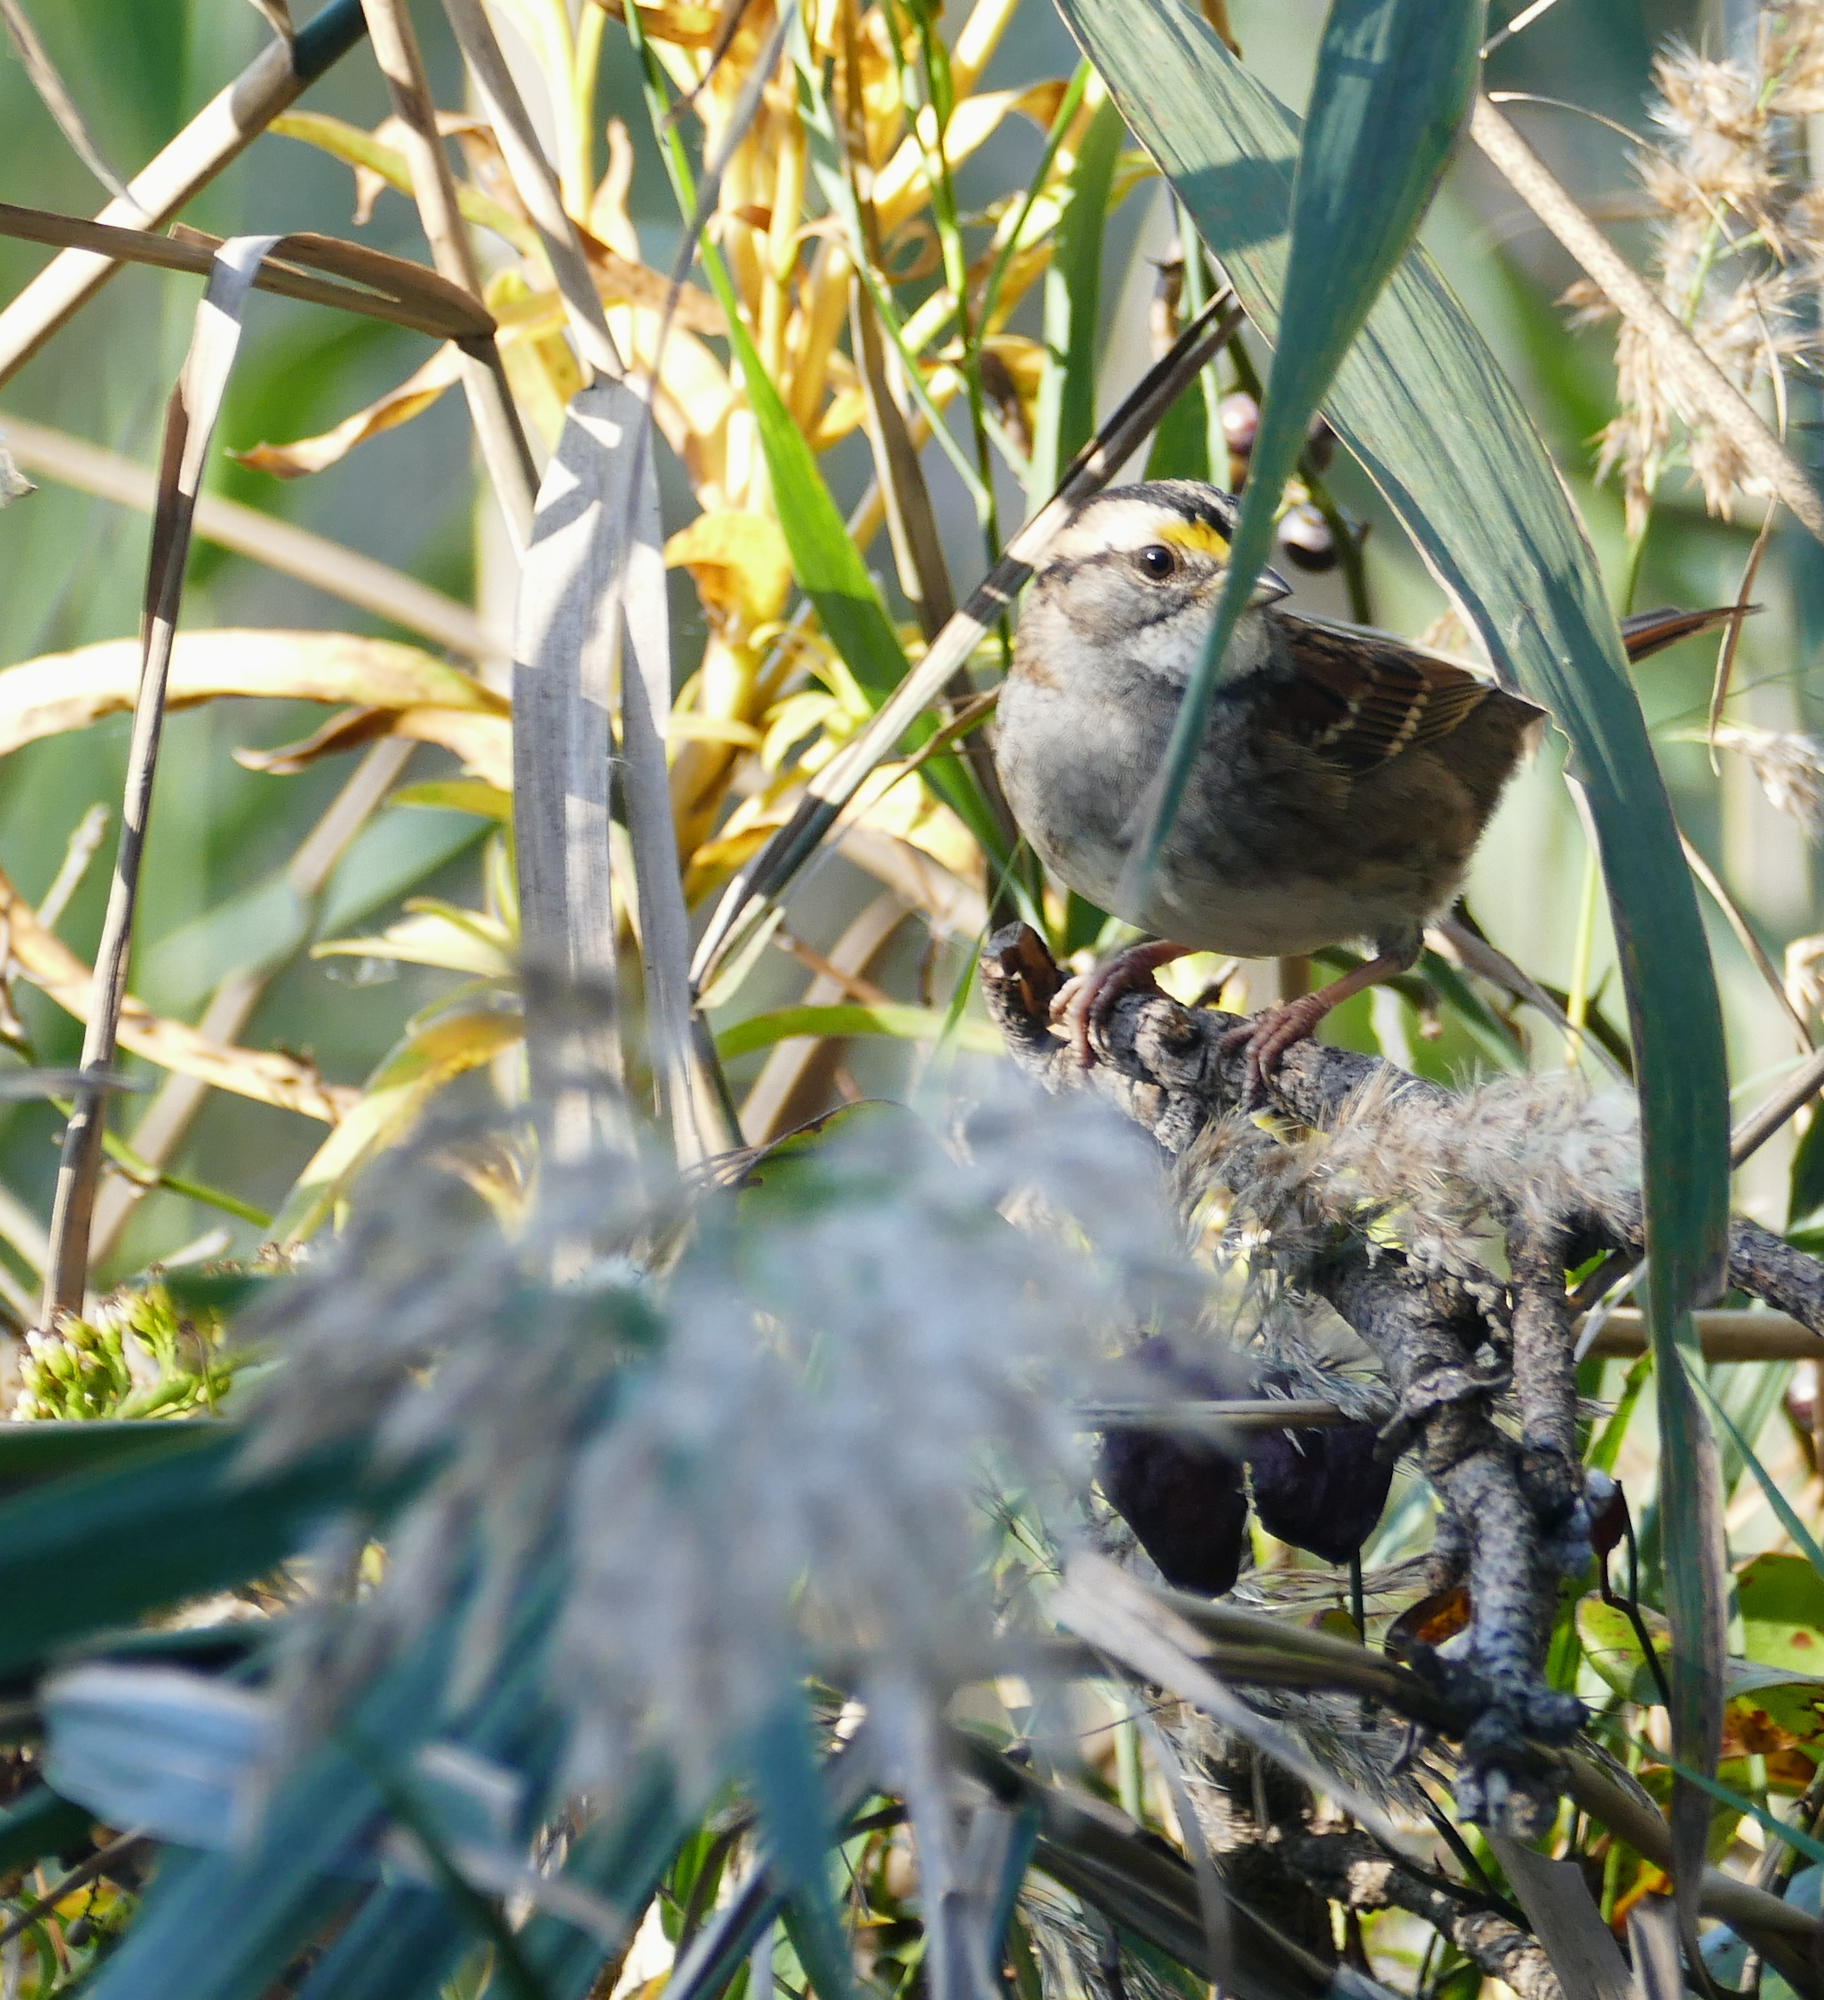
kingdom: Animalia
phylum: Chordata
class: Aves
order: Passeriformes
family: Passerellidae
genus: Zonotrichia
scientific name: Zonotrichia albicollis
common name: White-throated sparrow
